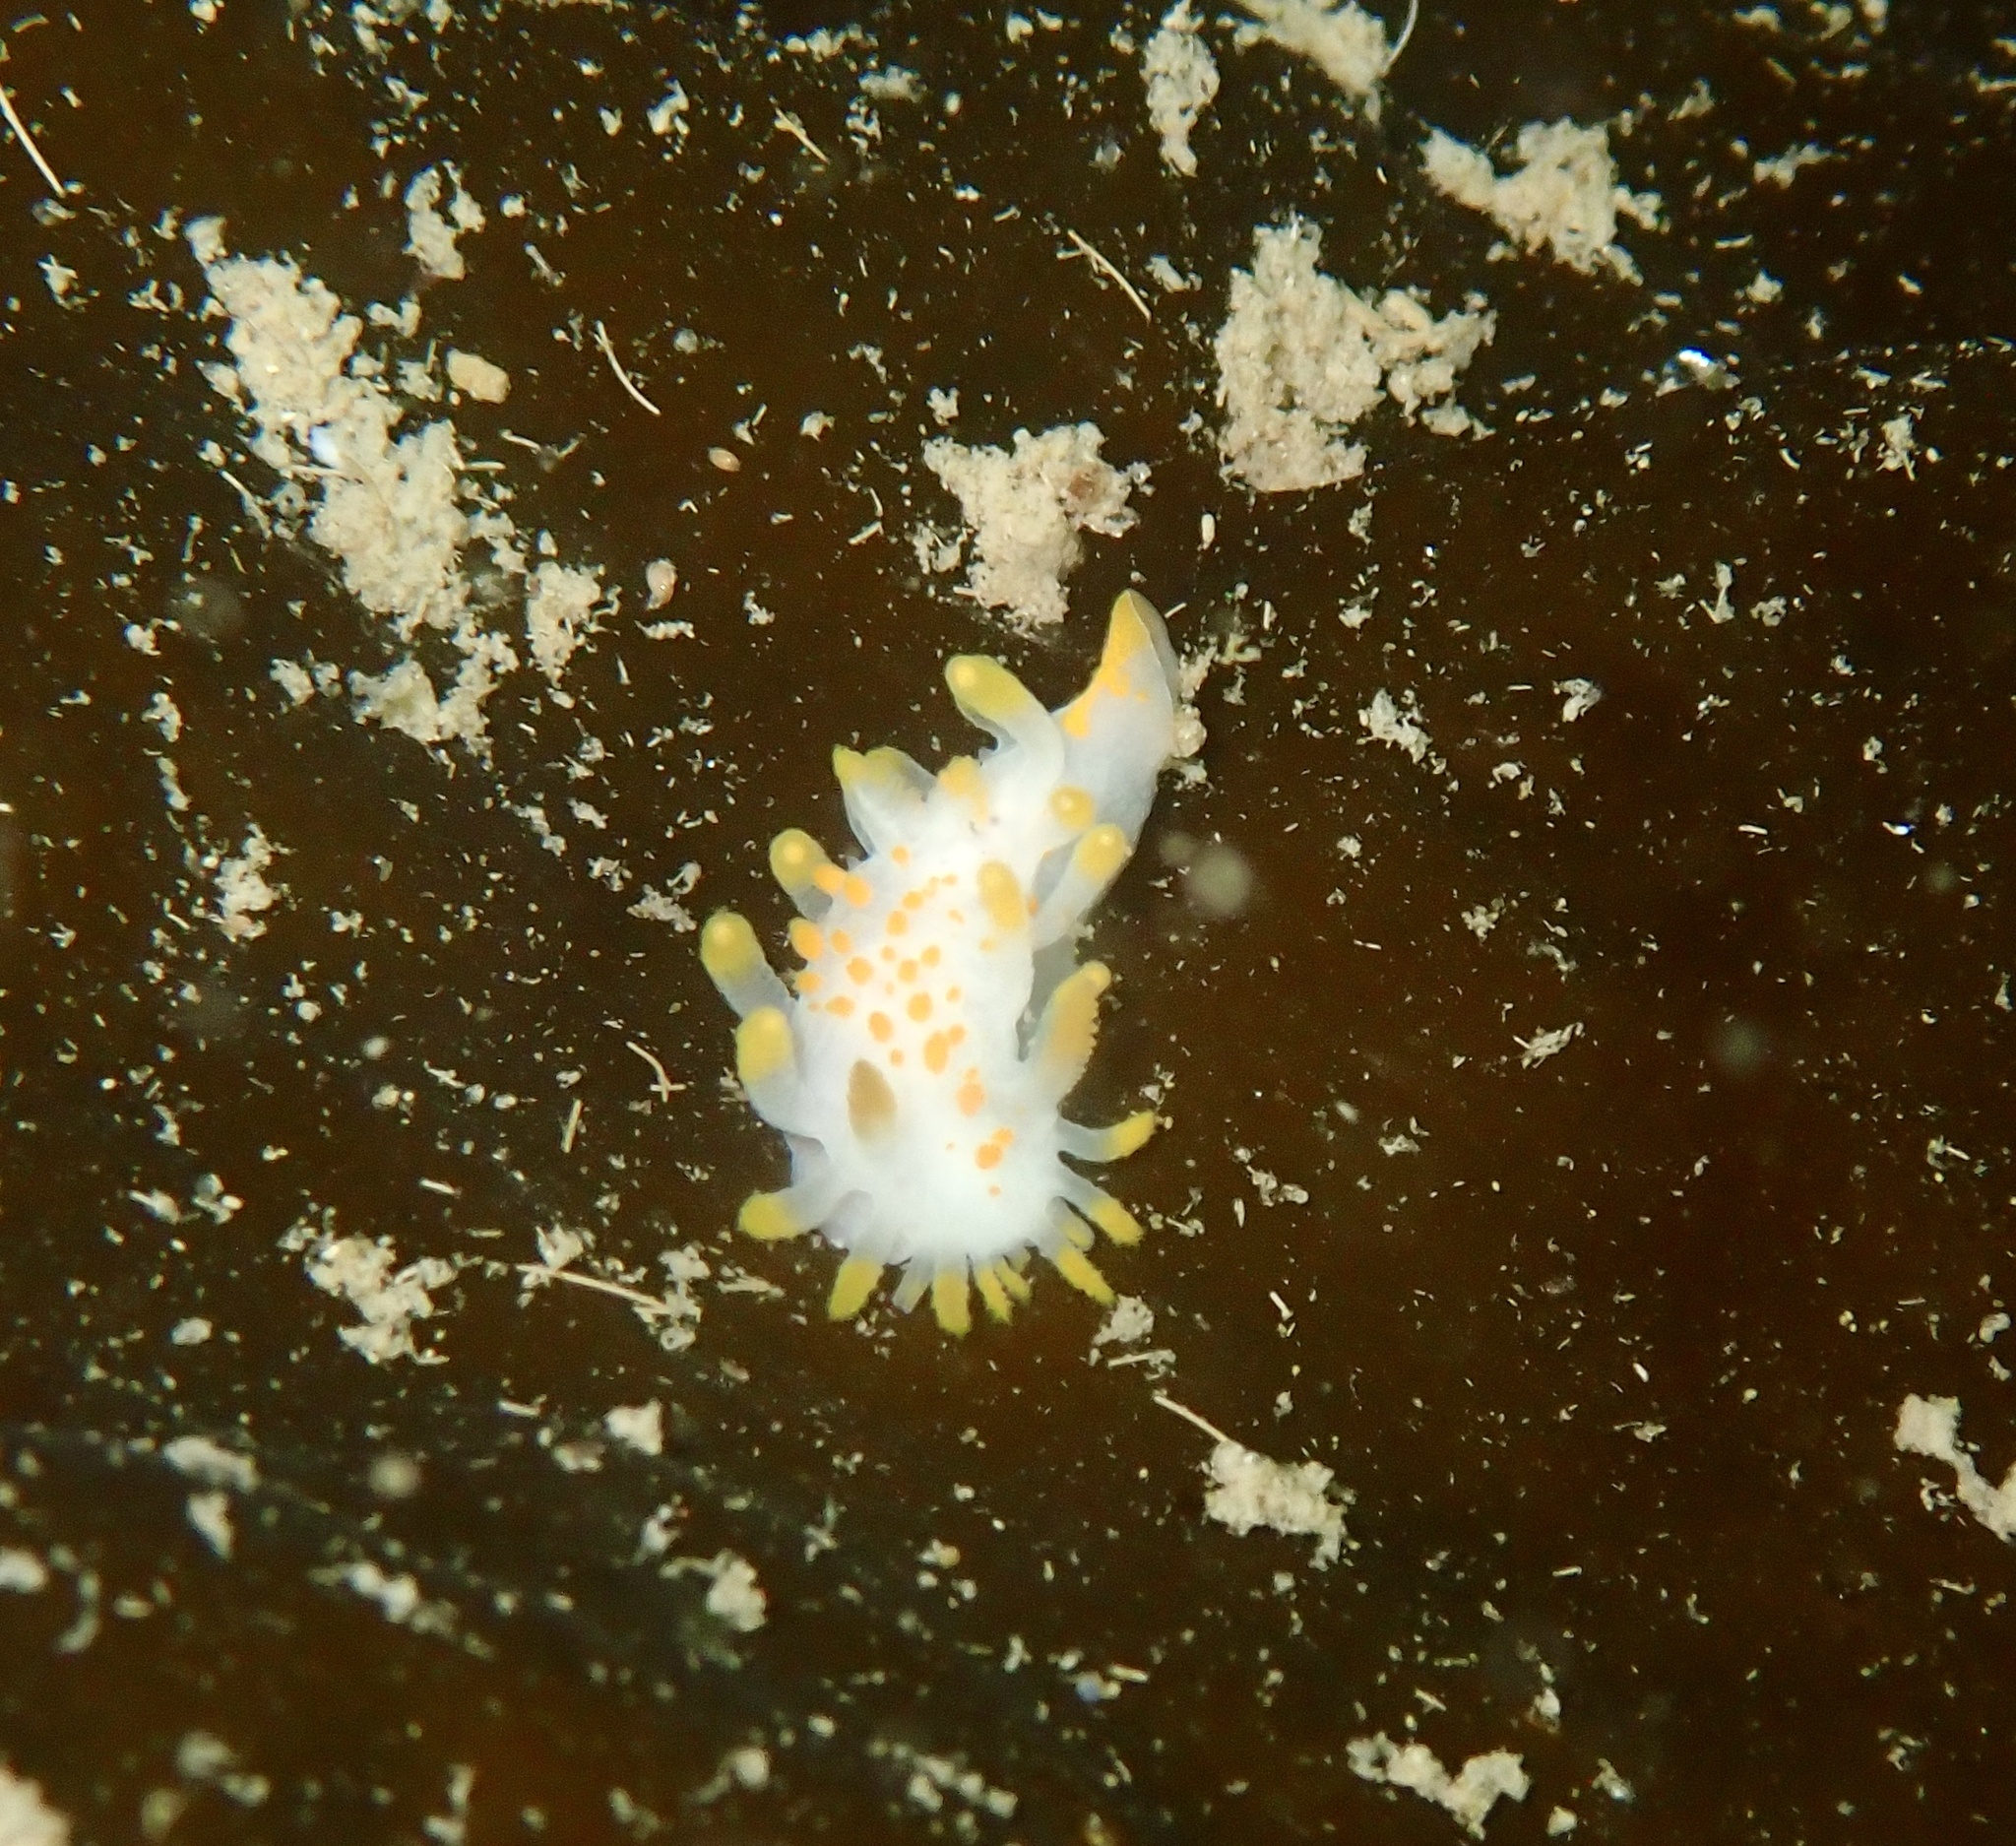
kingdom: Animalia
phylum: Mollusca
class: Gastropoda
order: Nudibranchia
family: Polyceridae
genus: Limacia
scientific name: Limacia clavigera
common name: Orange-clubbed sea slug
